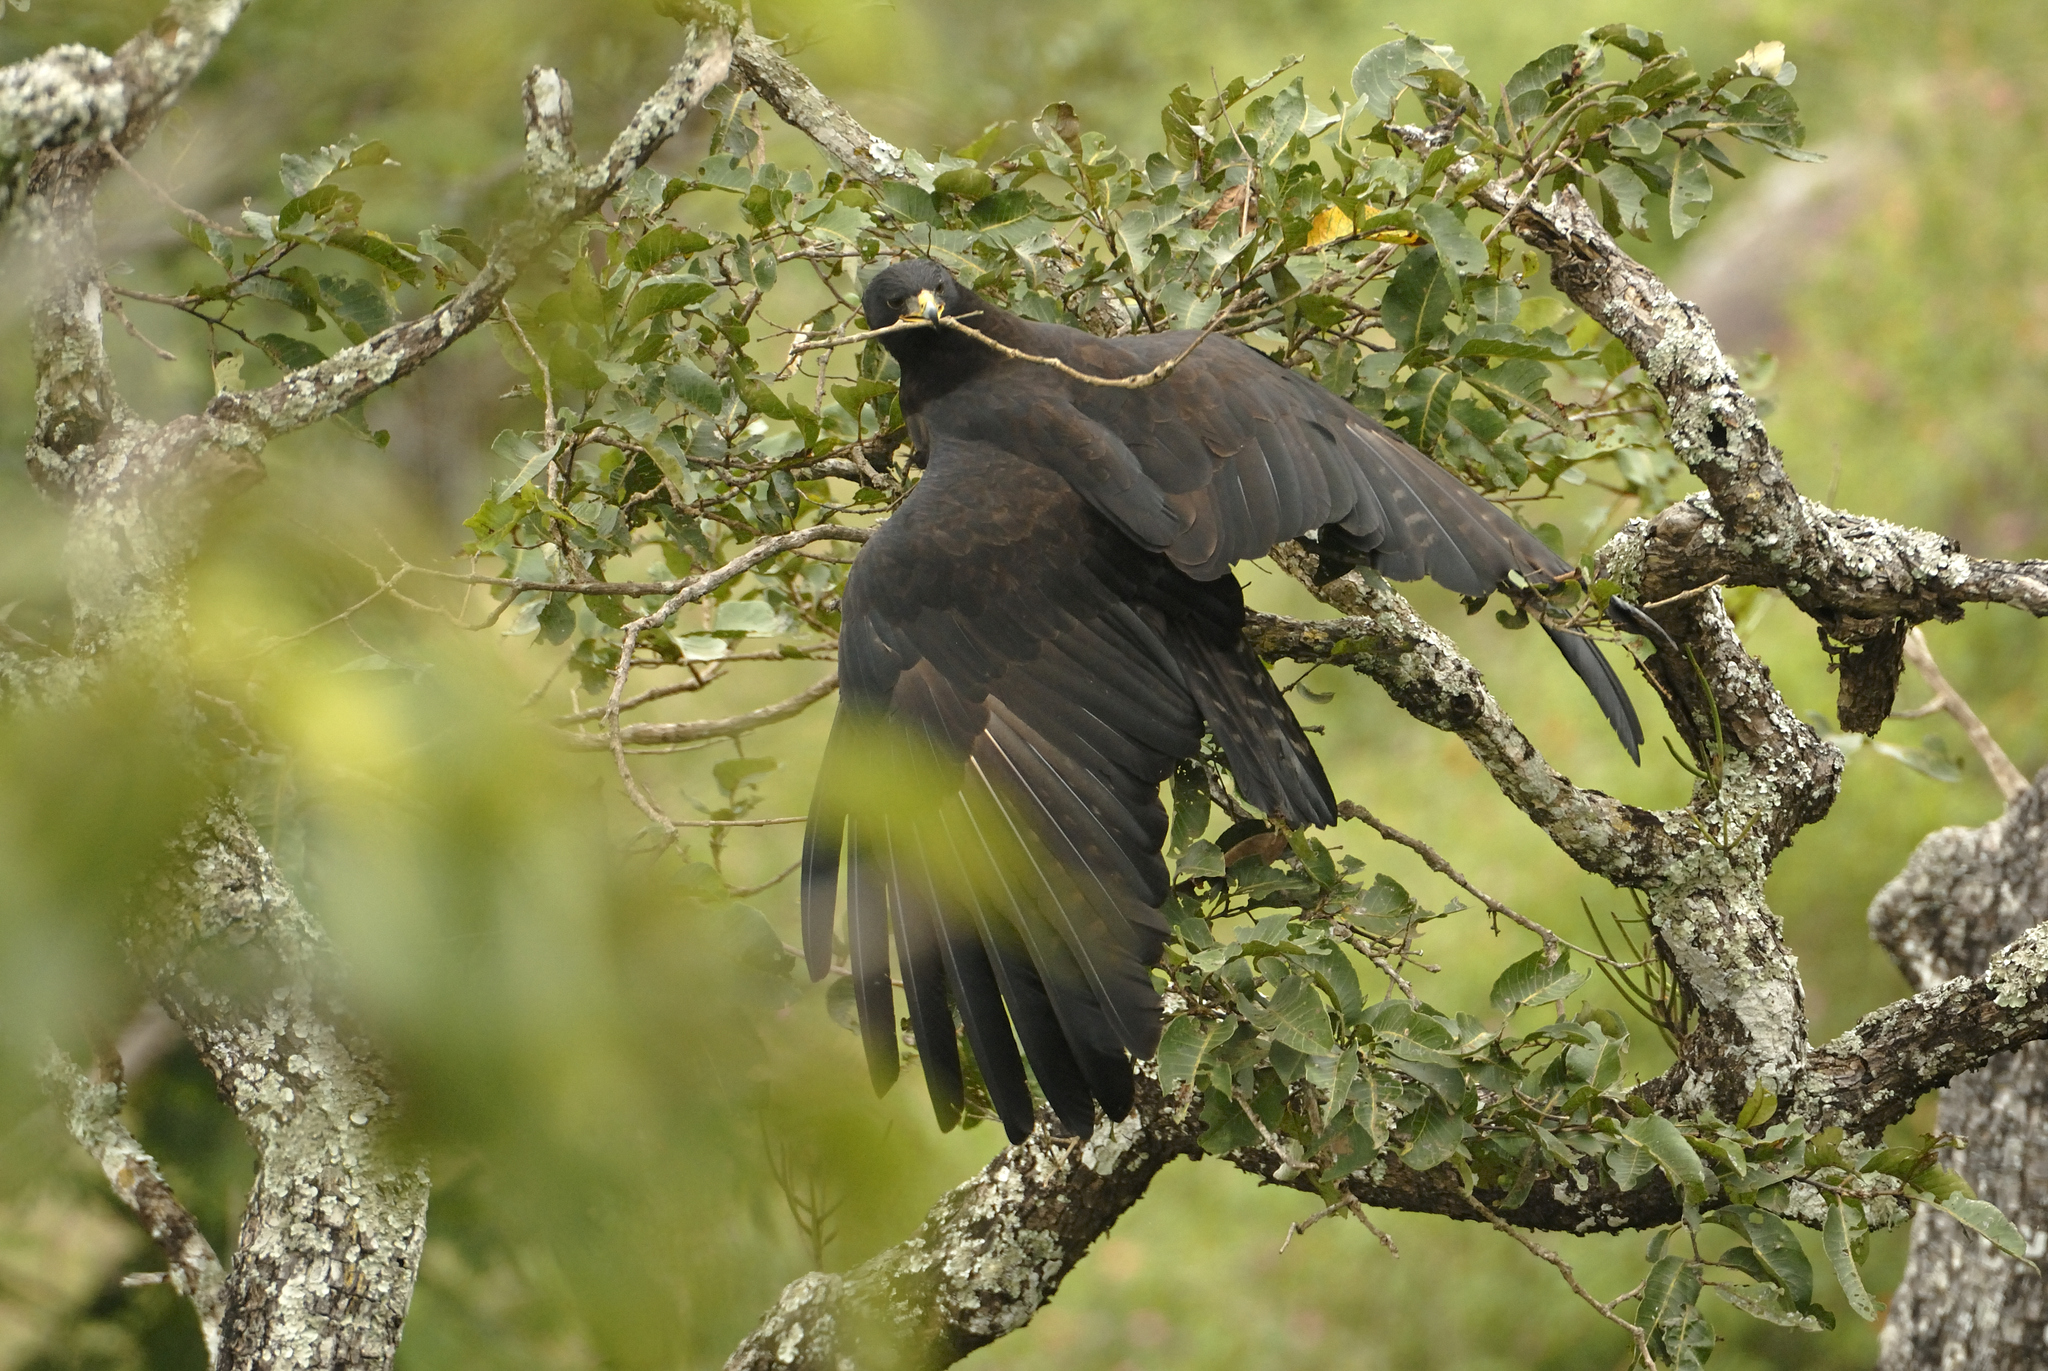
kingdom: Animalia
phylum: Chordata
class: Aves
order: Accipitriformes
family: Accipitridae
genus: Ictinaetus
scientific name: Ictinaetus malayensis
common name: Black eagle
